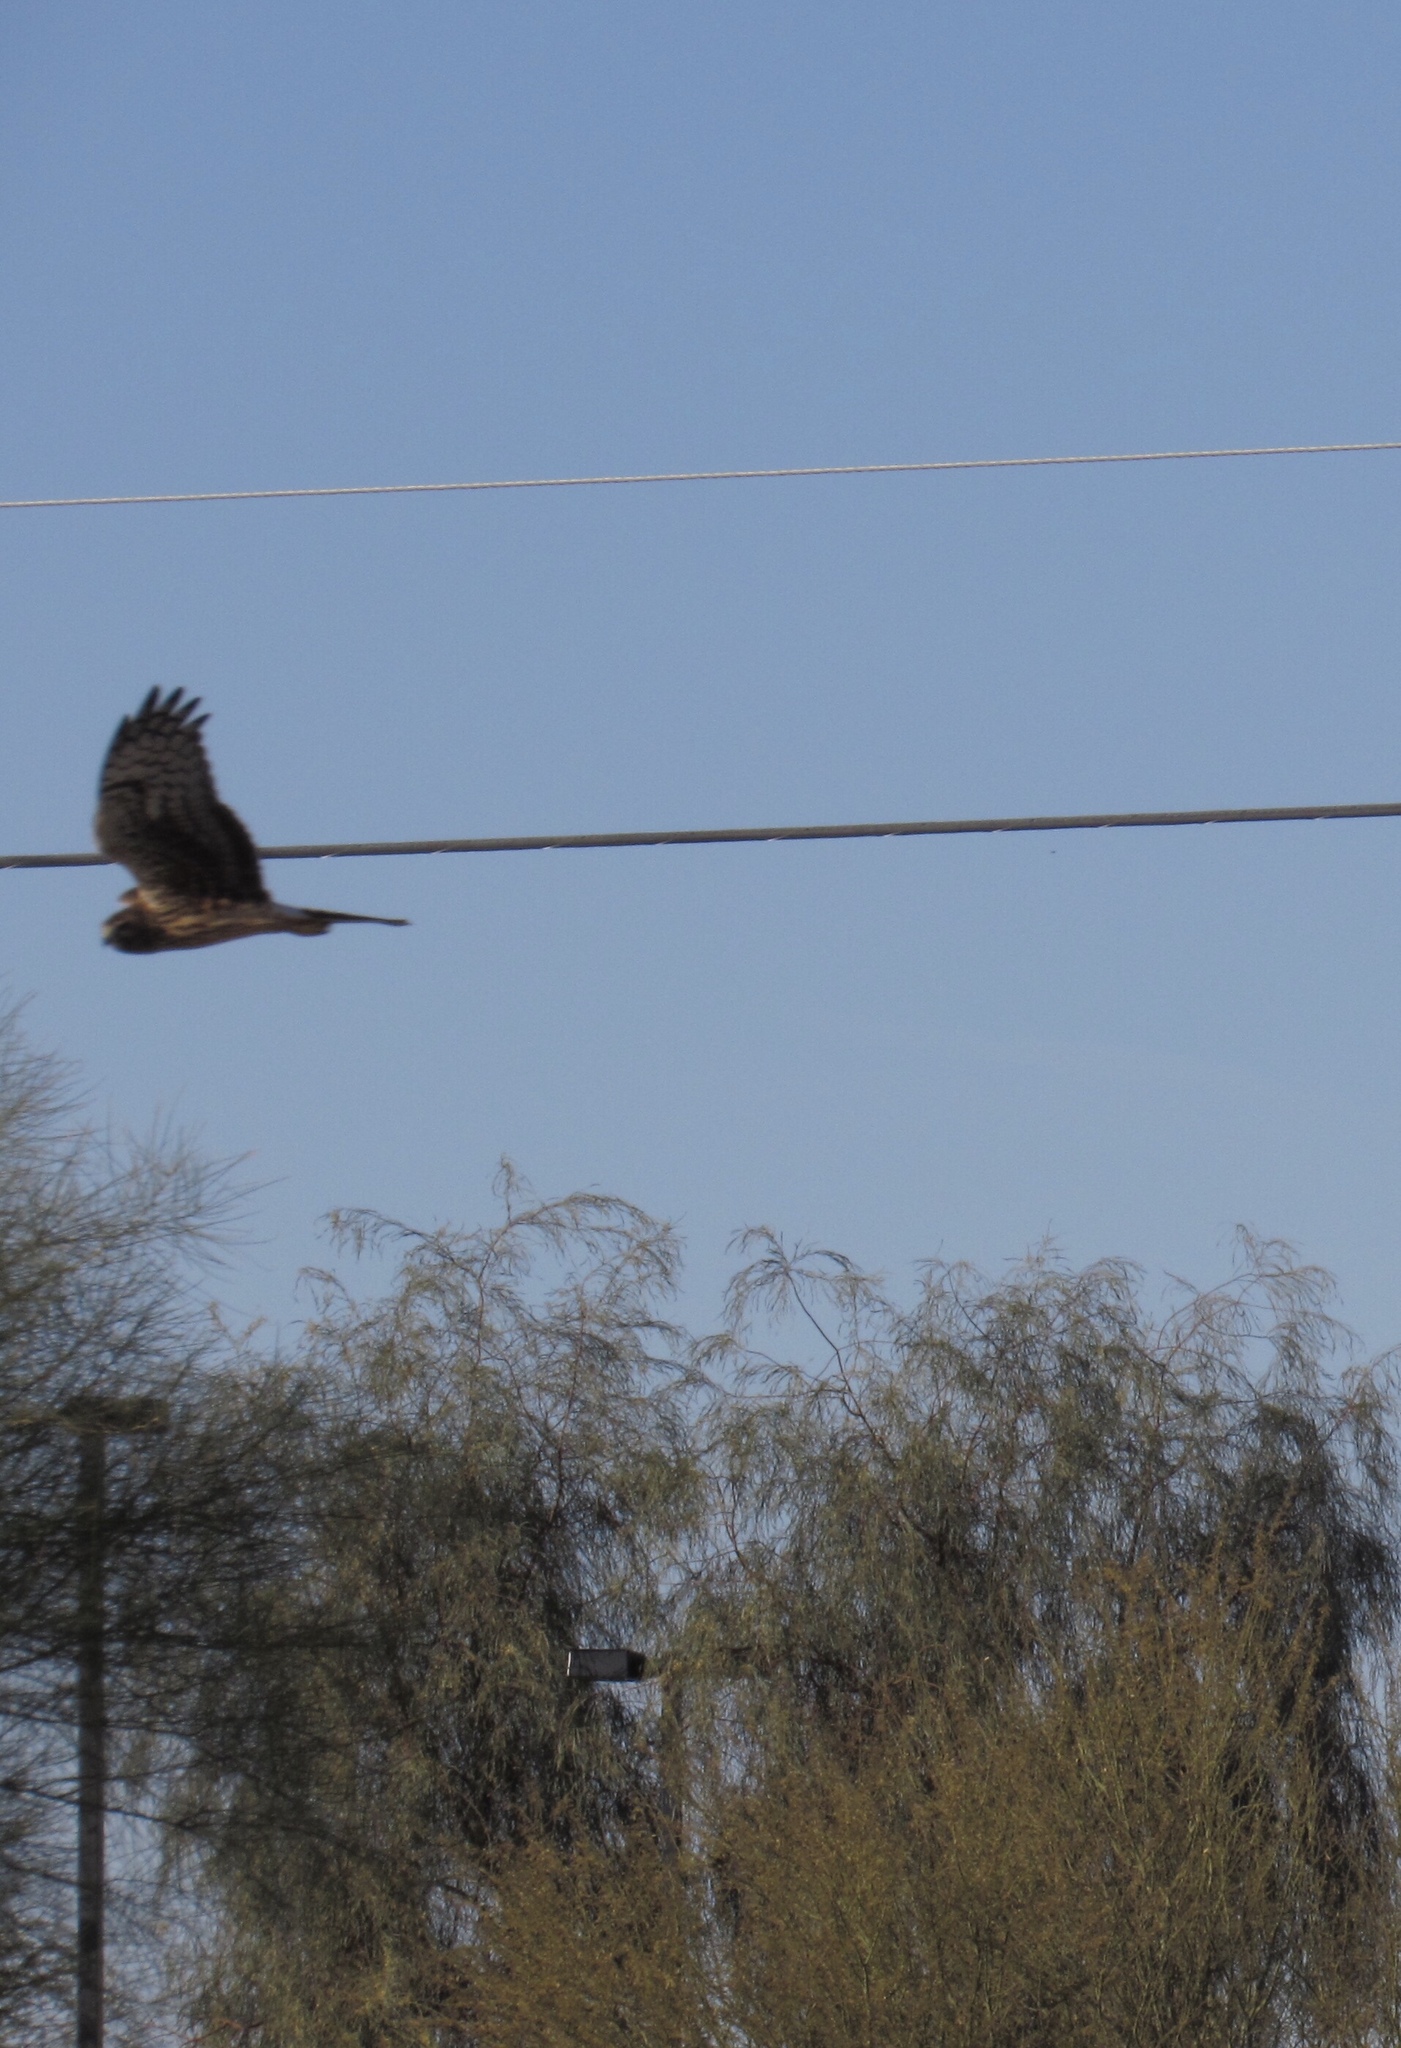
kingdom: Animalia
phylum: Chordata
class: Aves
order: Accipitriformes
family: Accipitridae
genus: Circus
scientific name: Circus cyaneus
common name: Hen harrier
